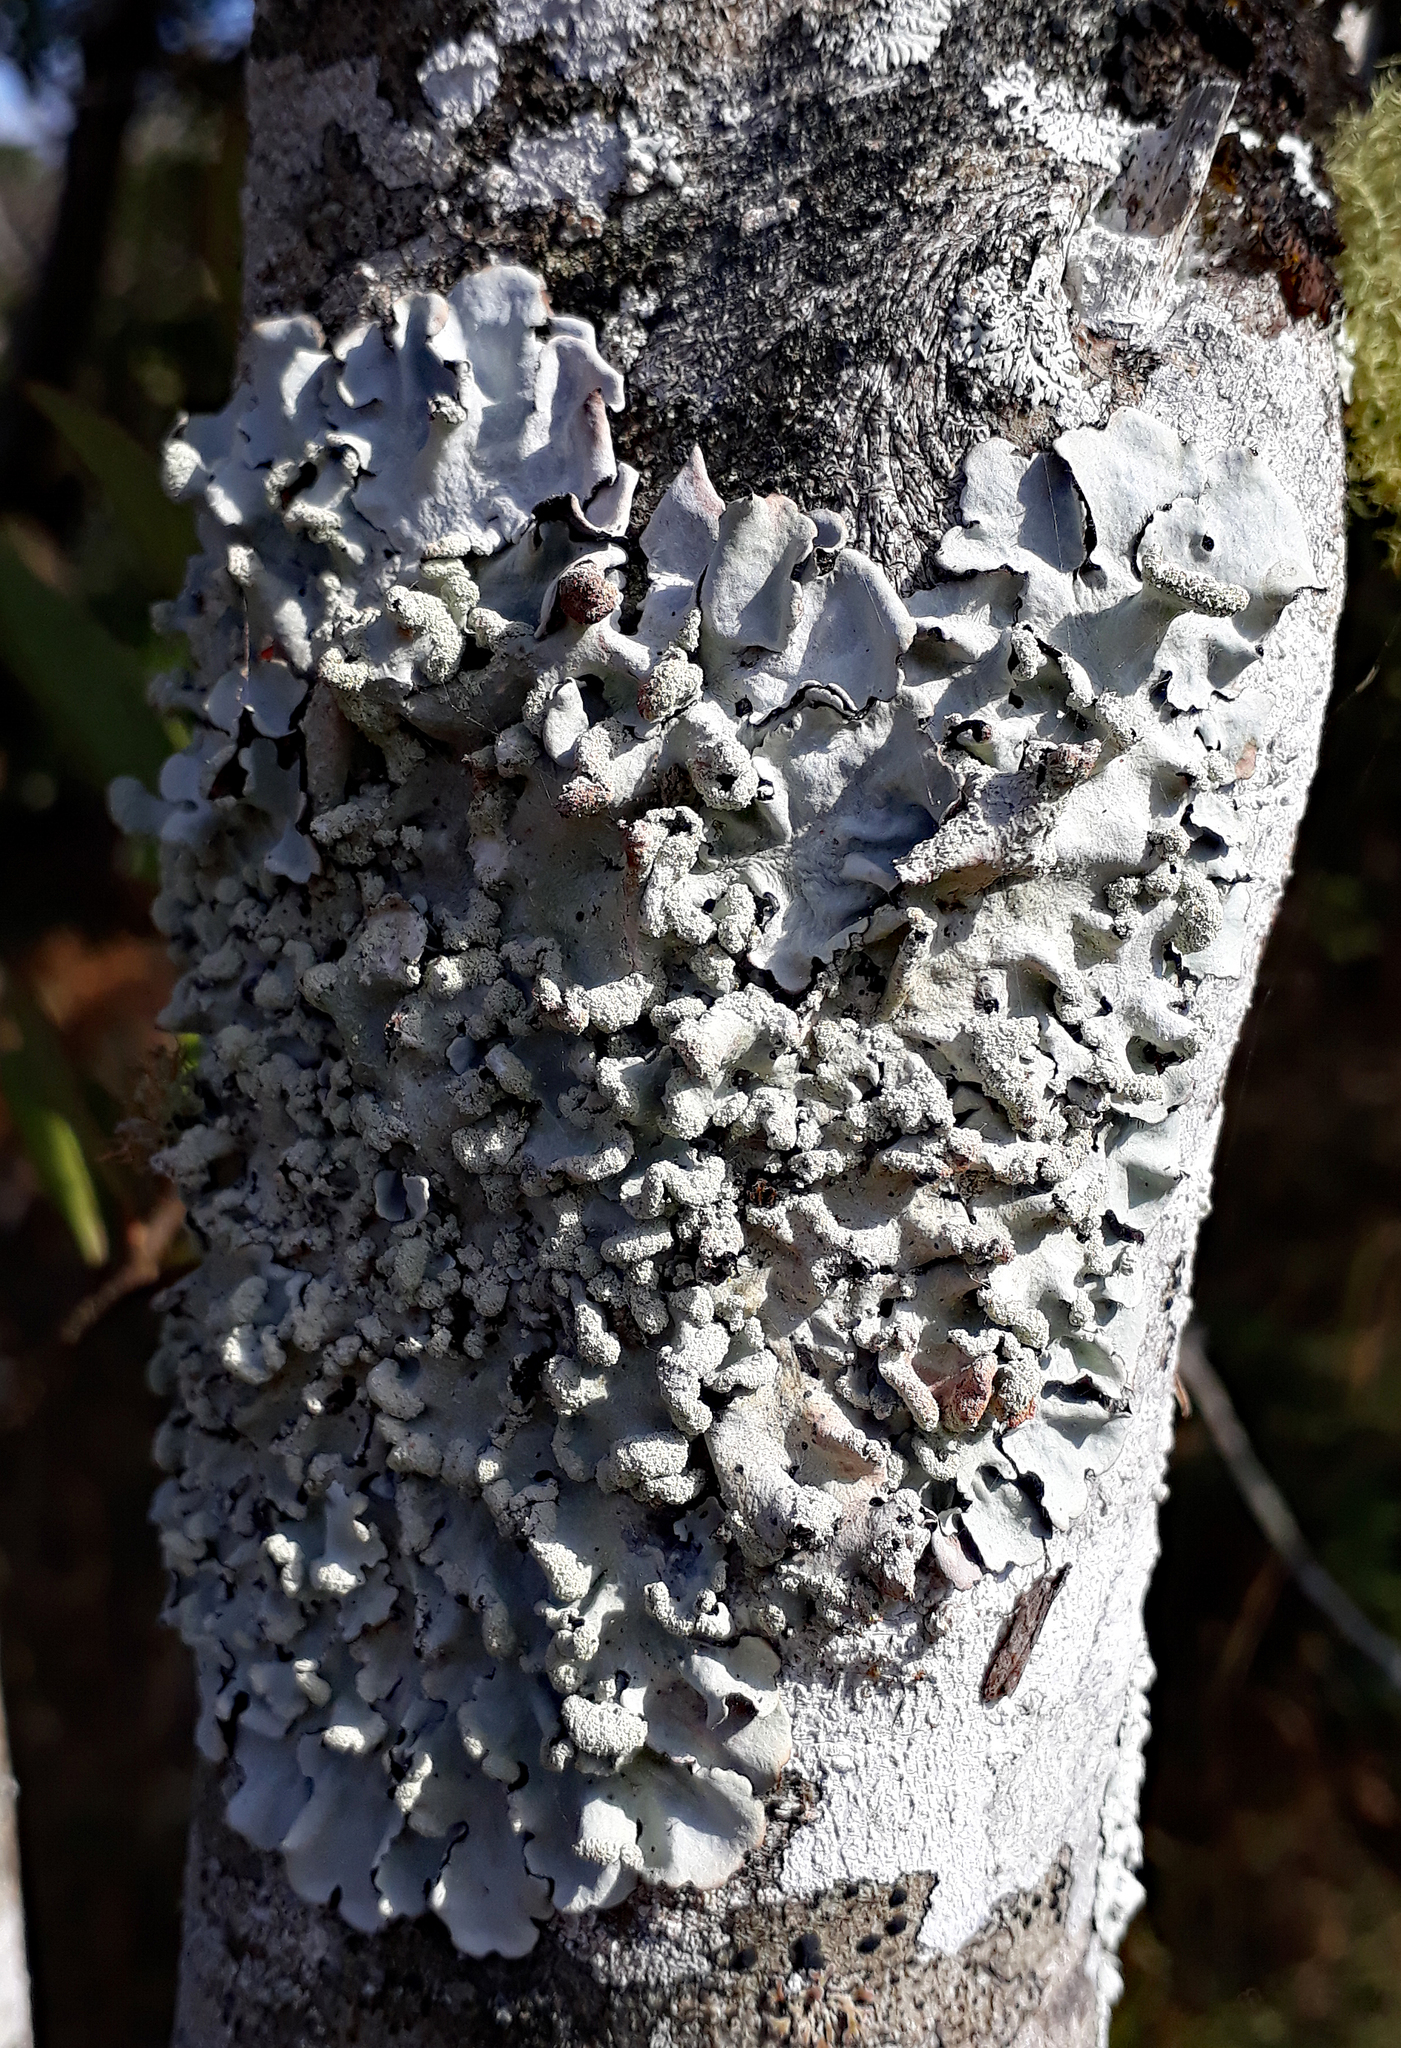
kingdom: Fungi
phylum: Ascomycota
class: Lecanoromycetes
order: Lecanorales
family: Parmeliaceae
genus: Parmotrema
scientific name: Parmotrema perlatum
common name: Black stone flower
